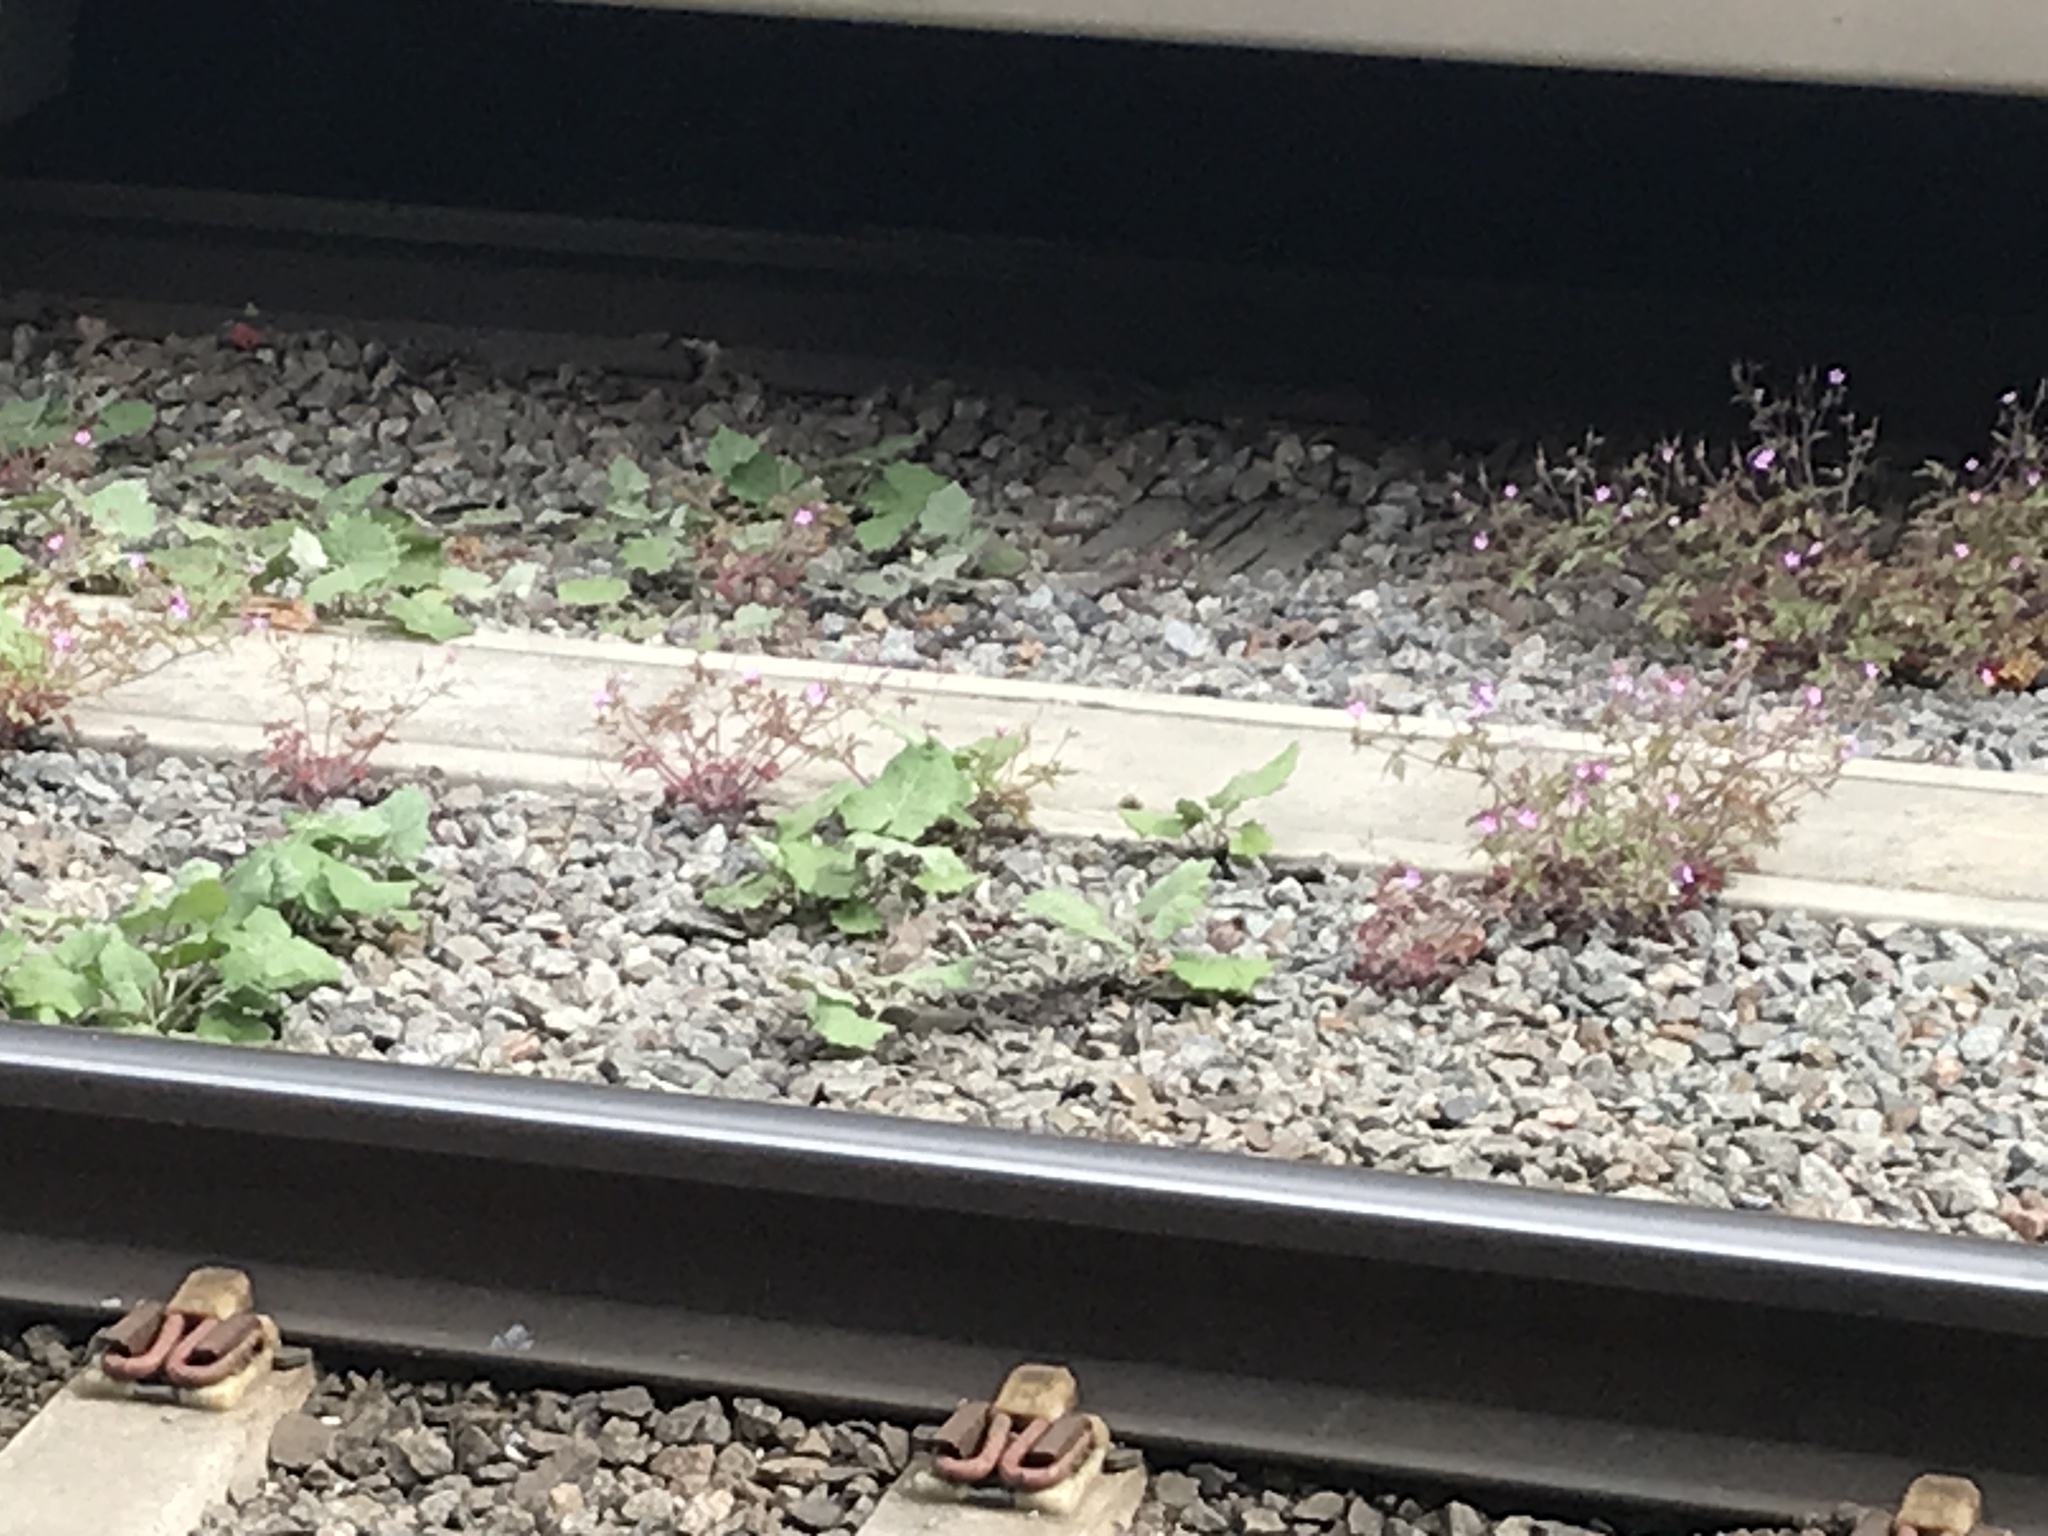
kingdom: Plantae
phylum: Tracheophyta
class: Magnoliopsida
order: Asterales
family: Asteraceae
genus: Tussilago
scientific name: Tussilago farfara
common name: Coltsfoot
